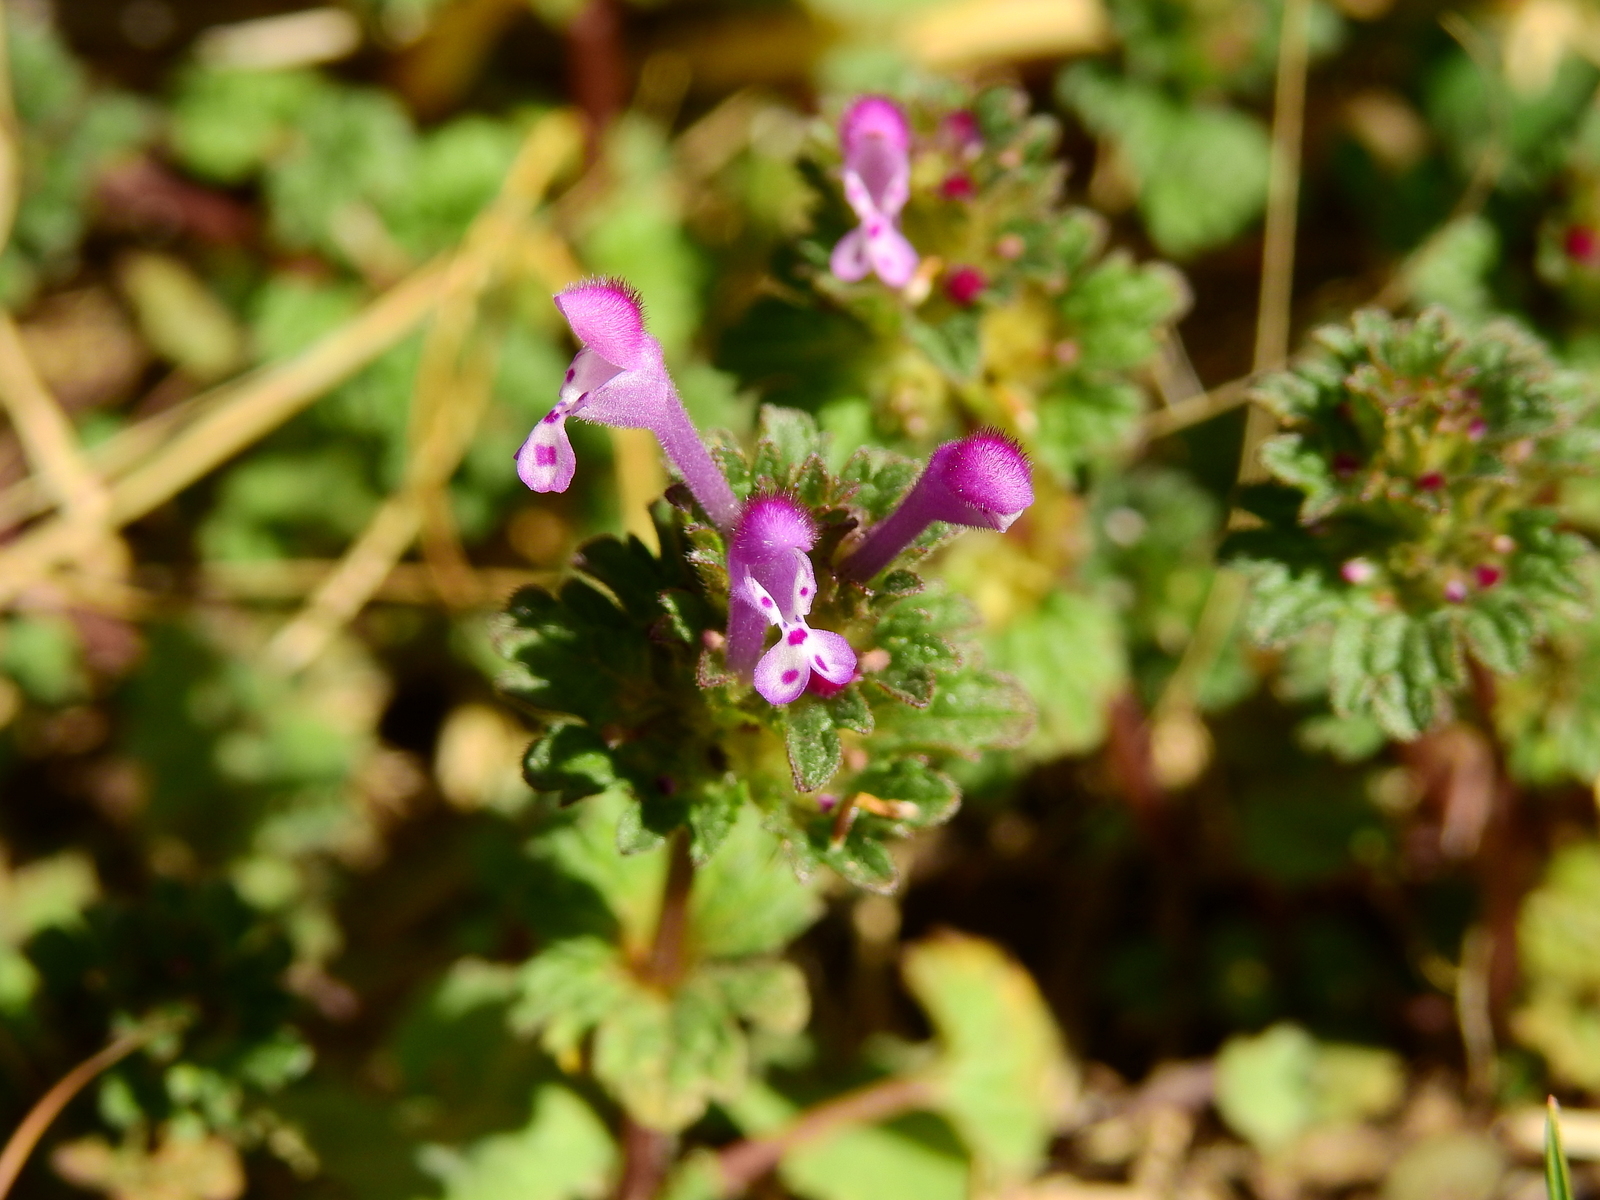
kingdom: Plantae
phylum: Tracheophyta
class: Magnoliopsida
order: Lamiales
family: Lamiaceae
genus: Lamium
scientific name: Lamium amplexicaule
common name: Henbit dead-nettle
